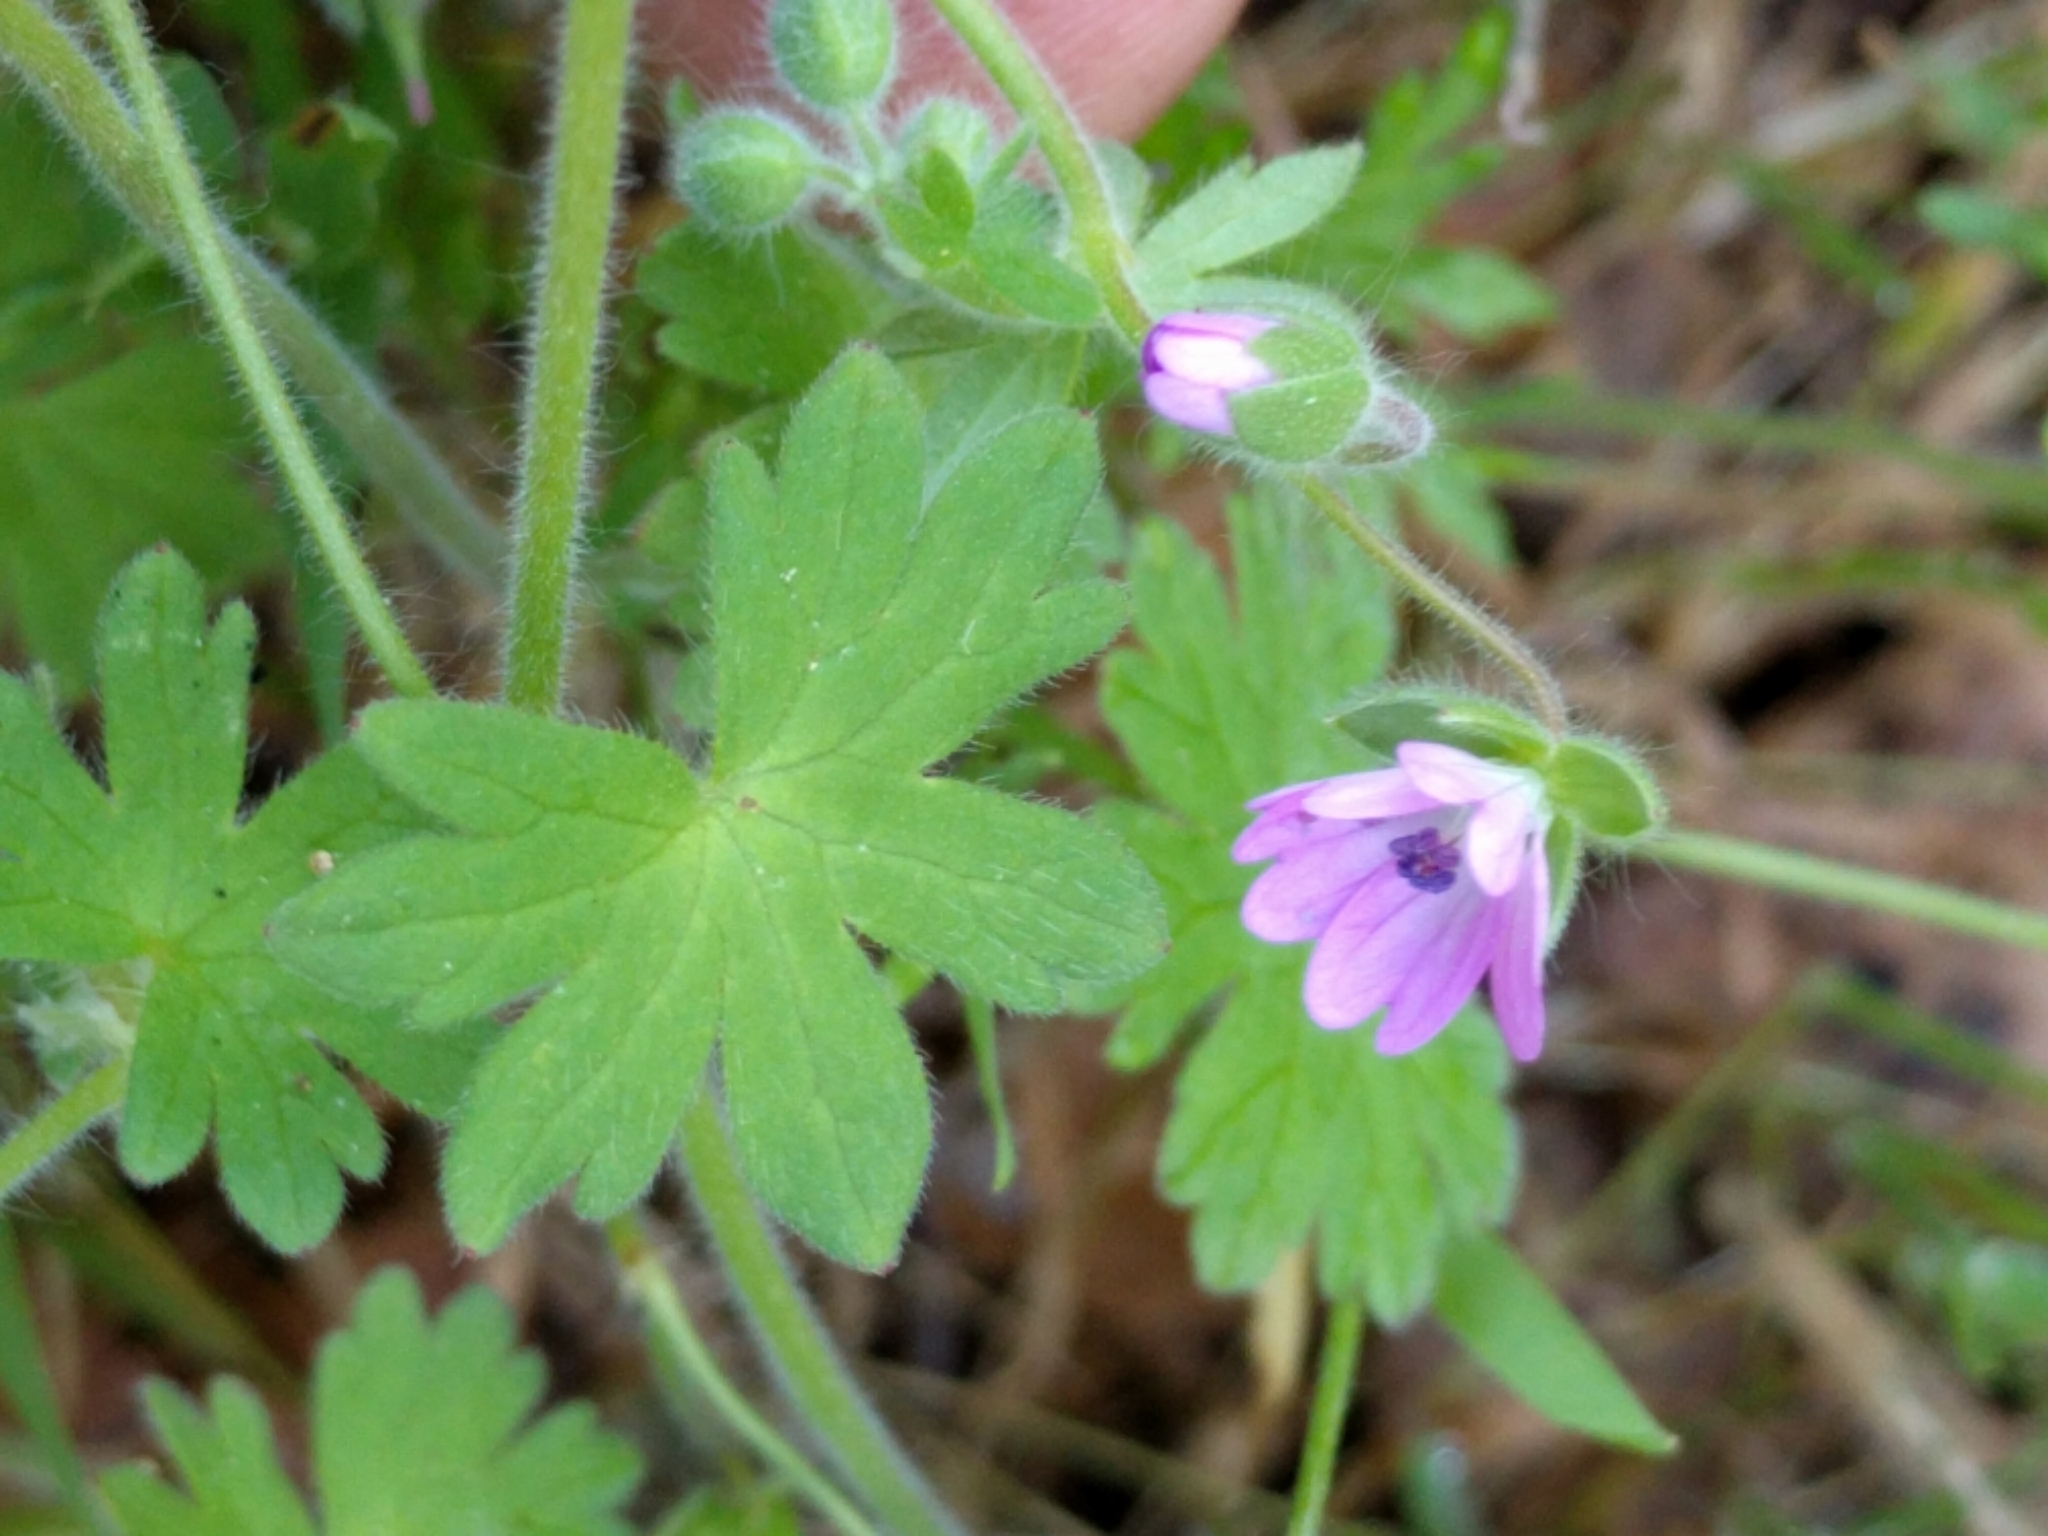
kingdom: Plantae
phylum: Tracheophyta
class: Magnoliopsida
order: Geraniales
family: Geraniaceae
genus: Geranium
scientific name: Geranium molle
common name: Dove's-foot crane's-bill
